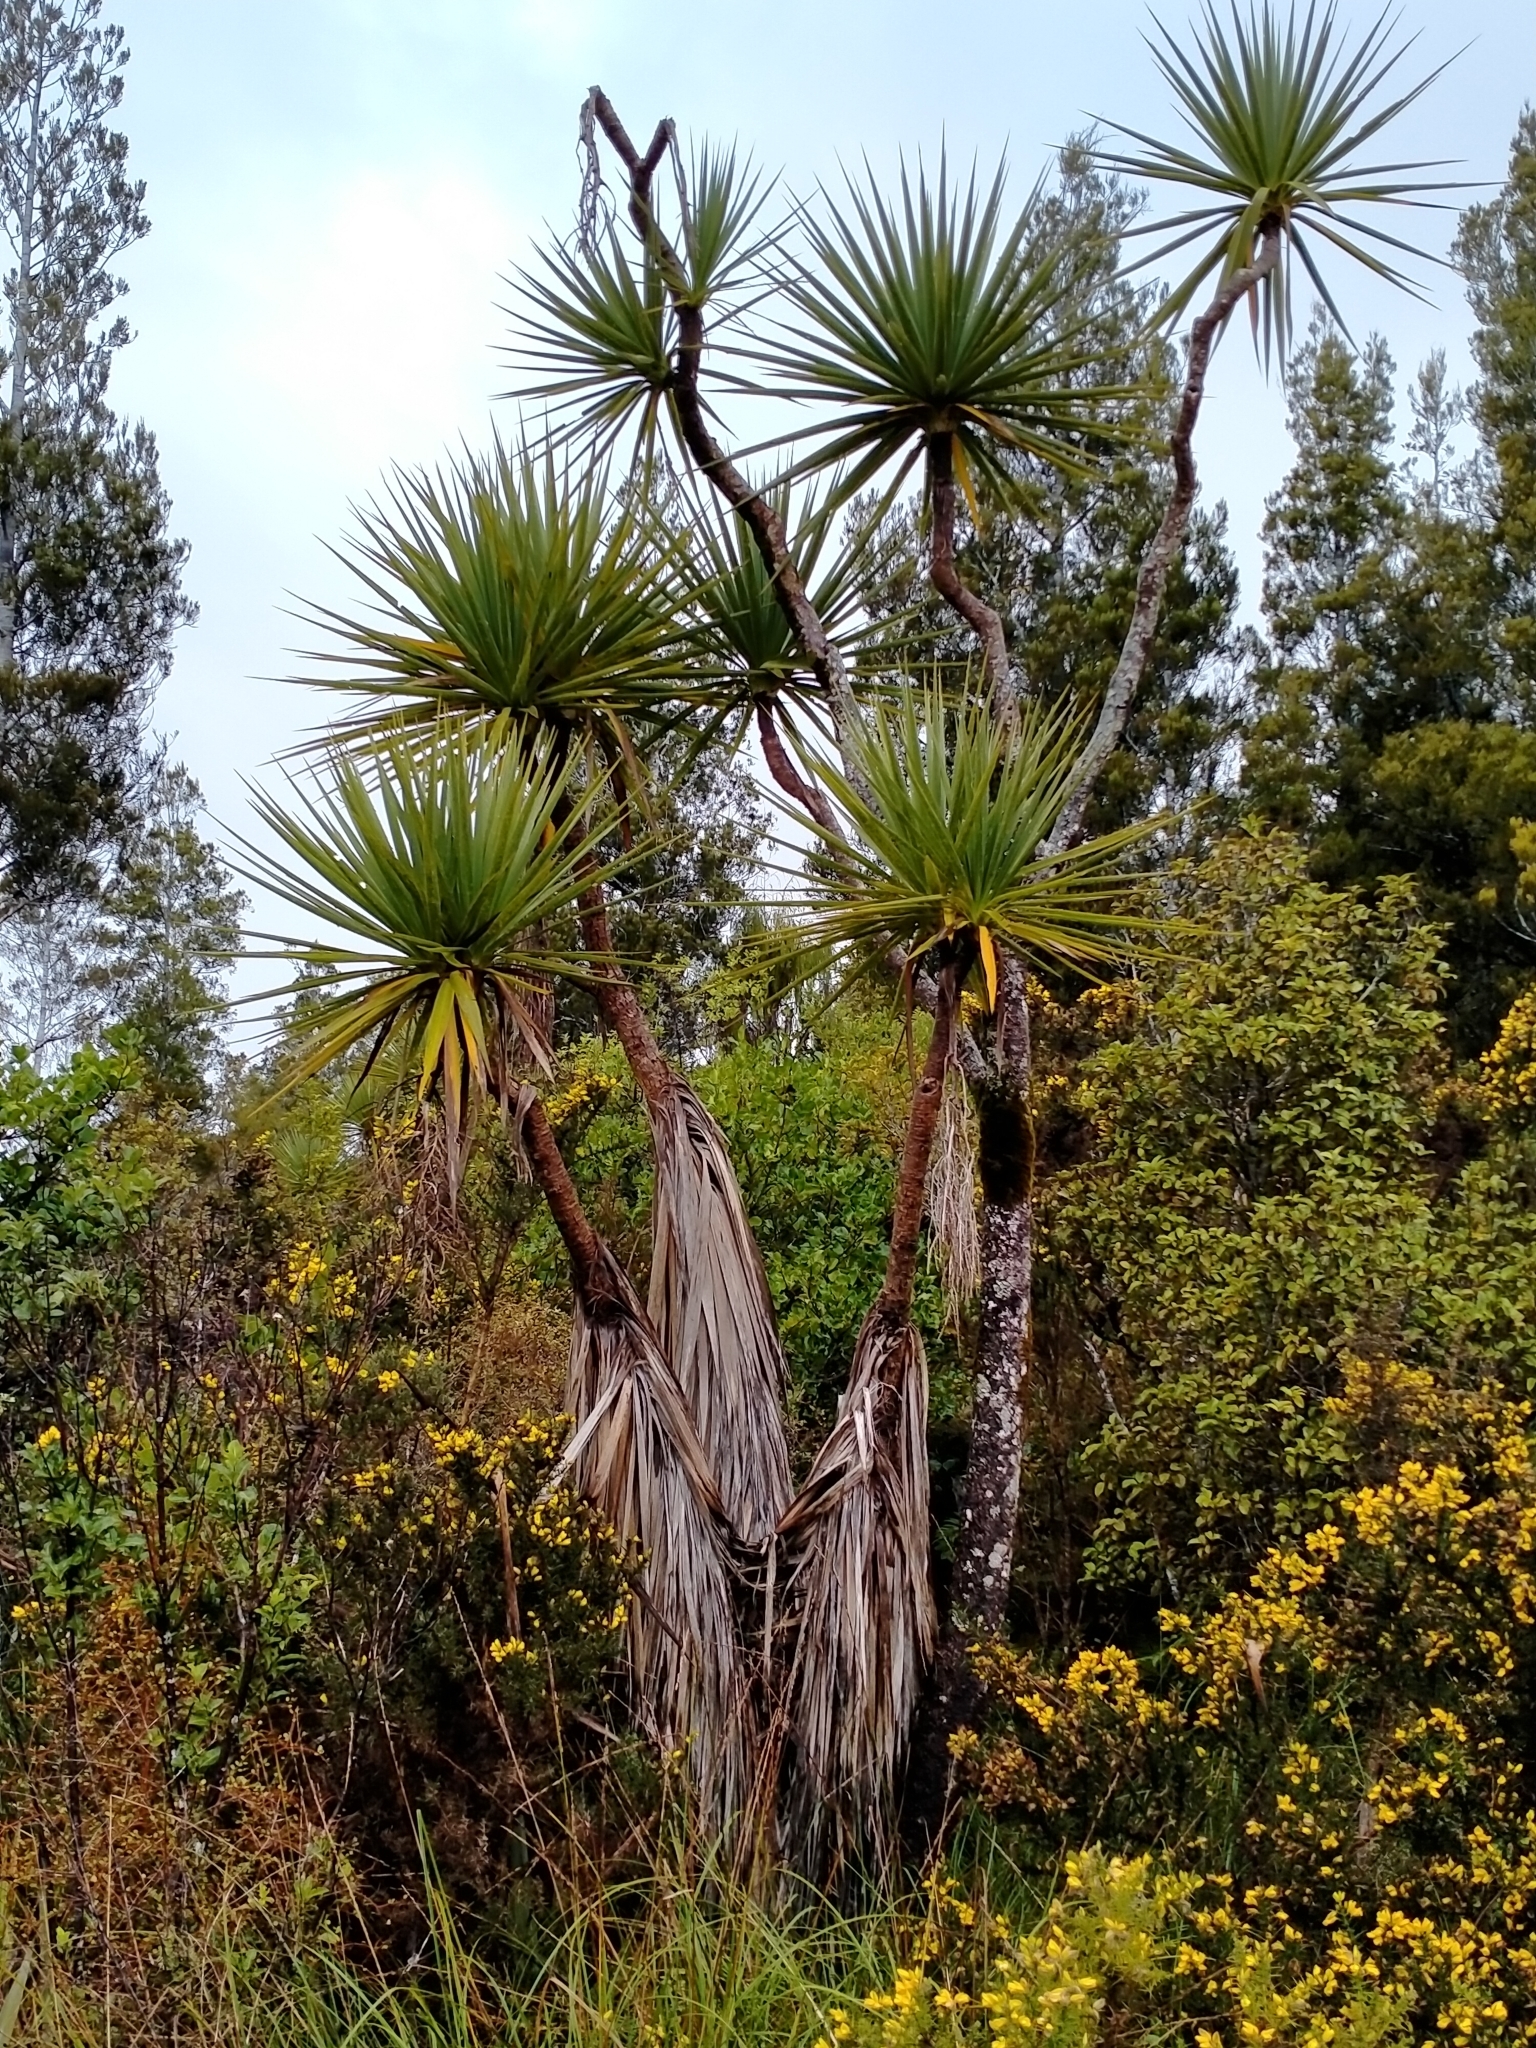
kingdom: Plantae
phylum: Tracheophyta
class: Liliopsida
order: Asparagales
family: Asparagaceae
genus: Cordyline
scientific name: Cordyline australis
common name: Cabbage-palm
